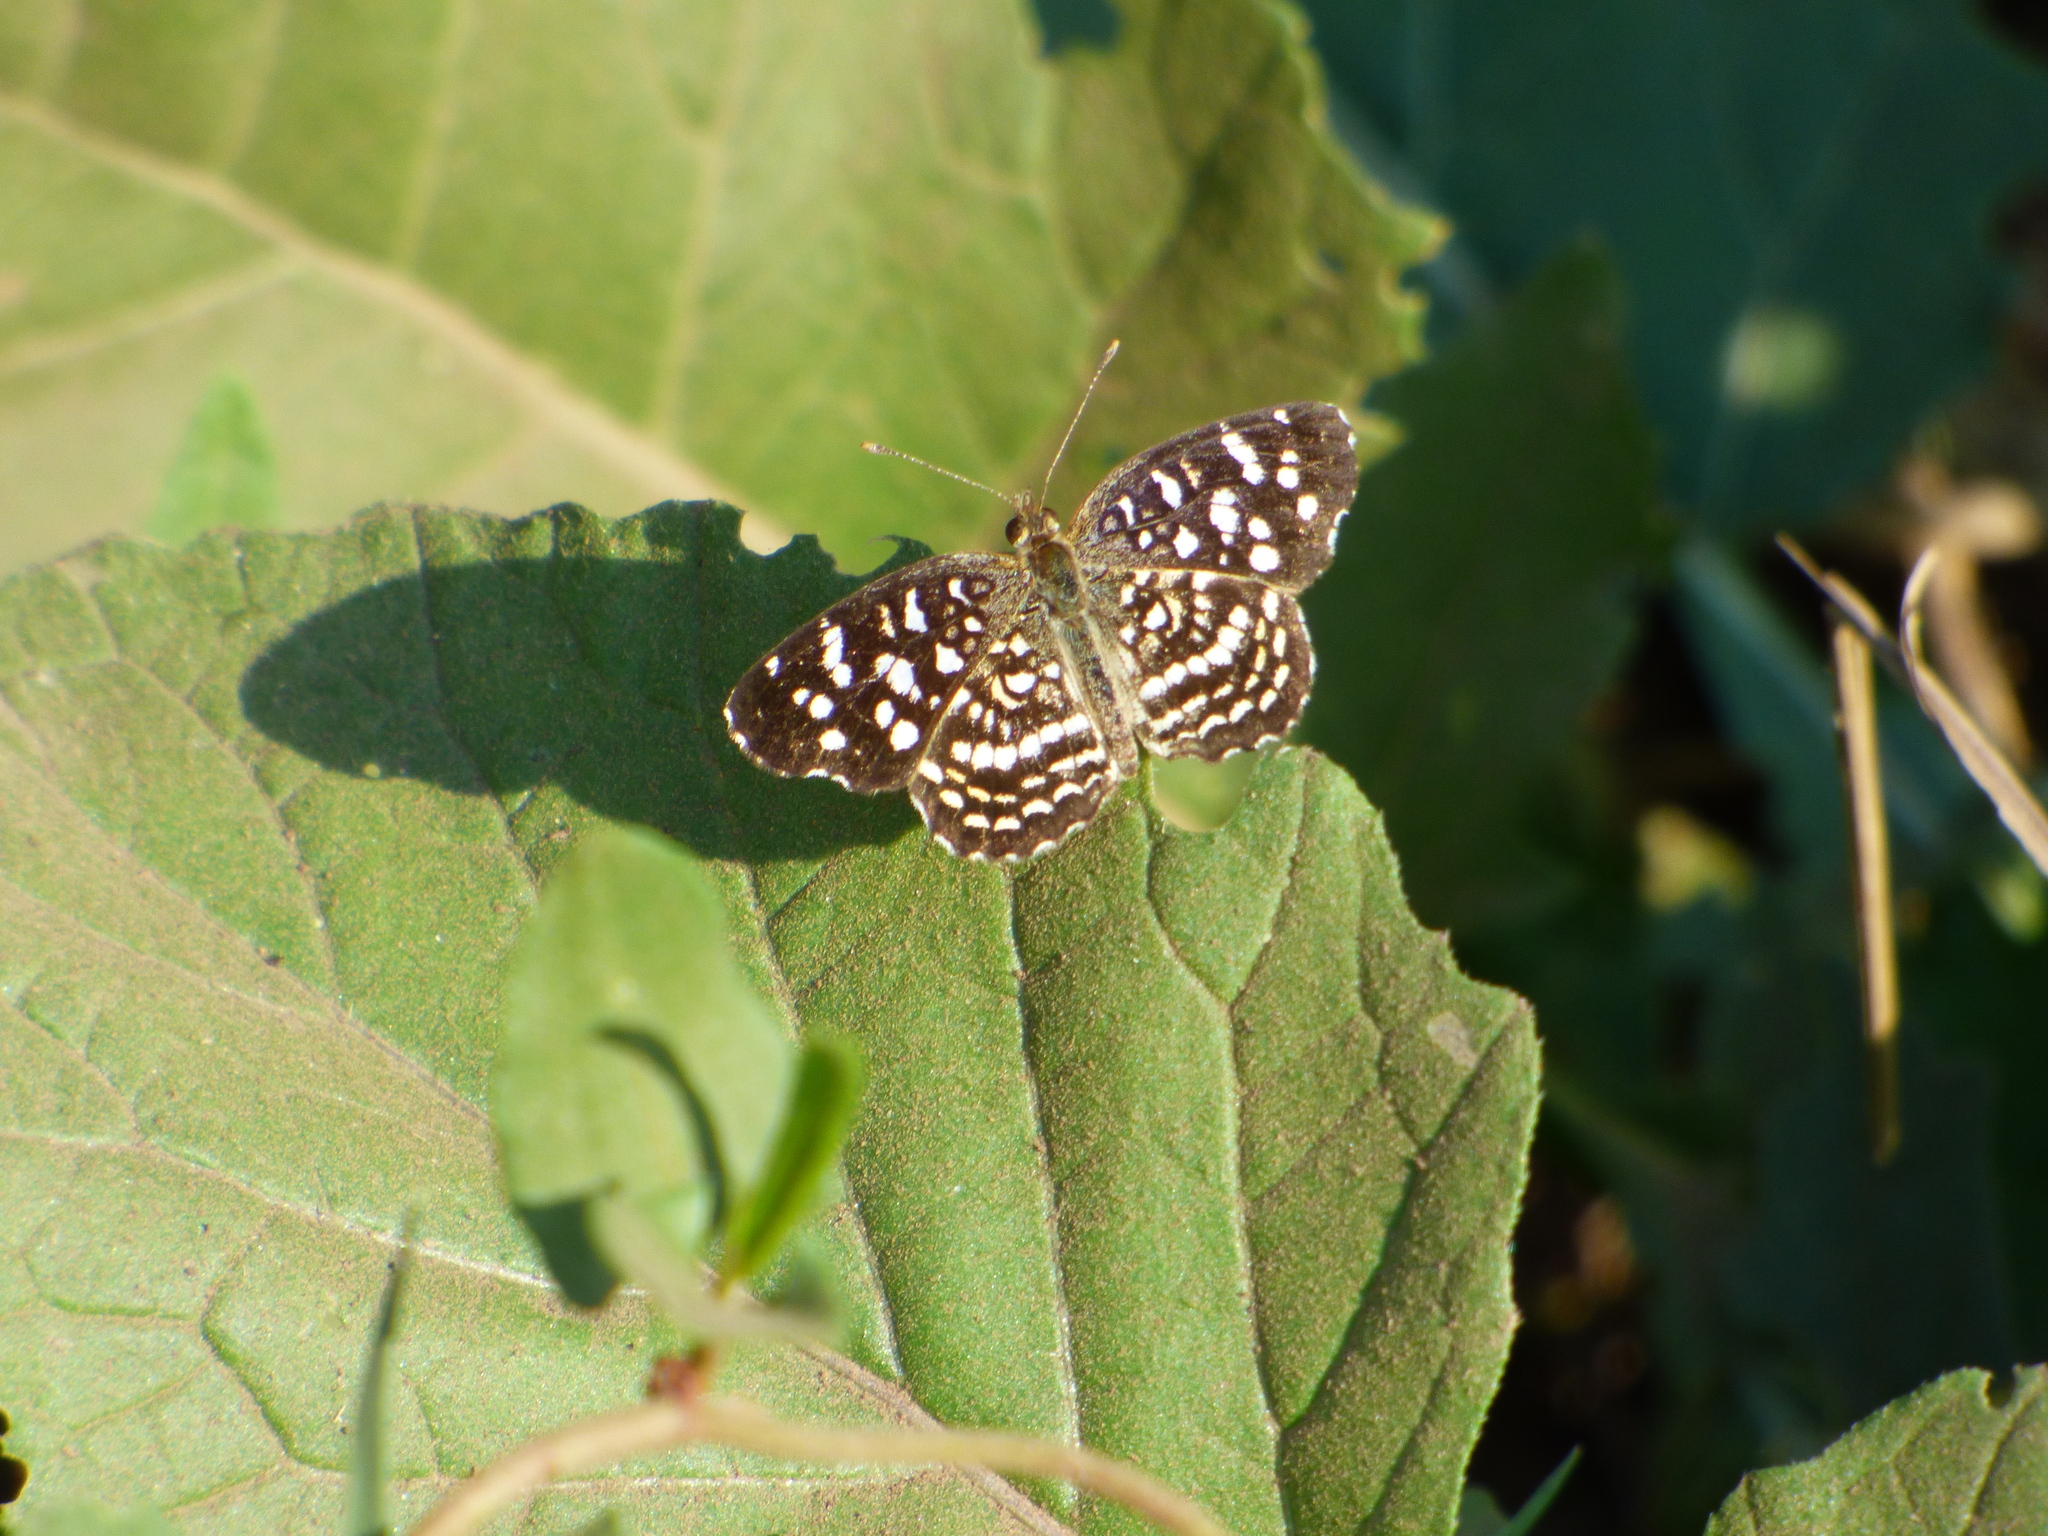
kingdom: Animalia
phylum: Arthropoda
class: Insecta
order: Lepidoptera
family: Nymphalidae
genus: Anthanassa
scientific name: Anthanassa hermas
